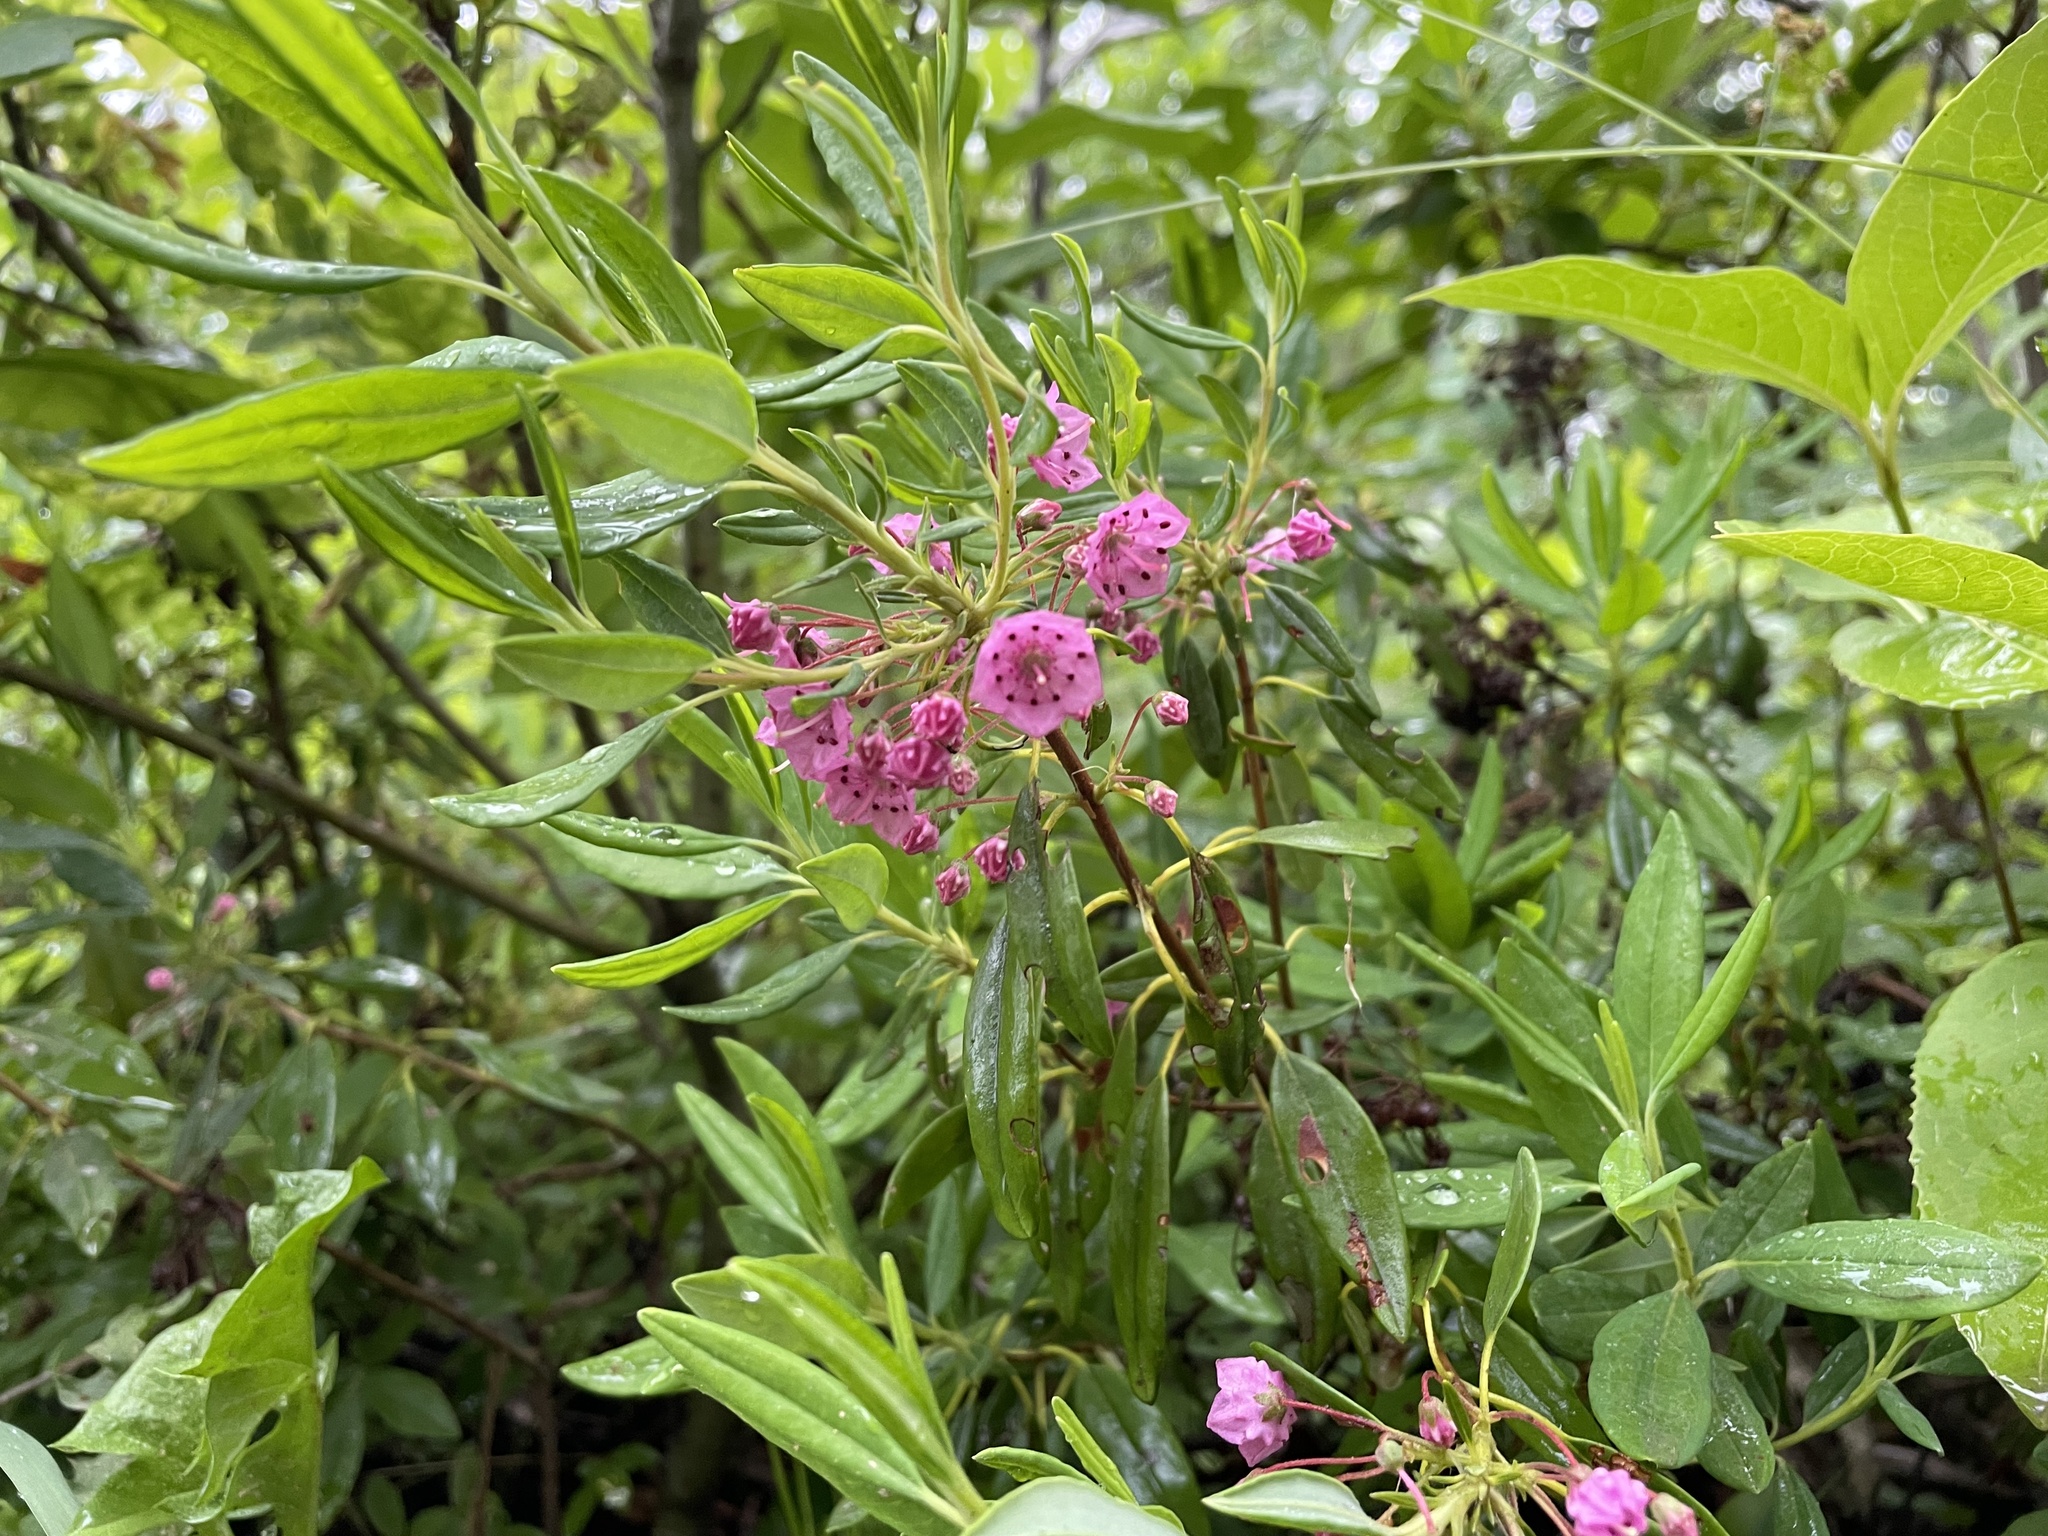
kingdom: Plantae
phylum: Tracheophyta
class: Magnoliopsida
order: Ericales
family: Ericaceae
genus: Kalmia
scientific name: Kalmia angustifolia
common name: Sheep-laurel
